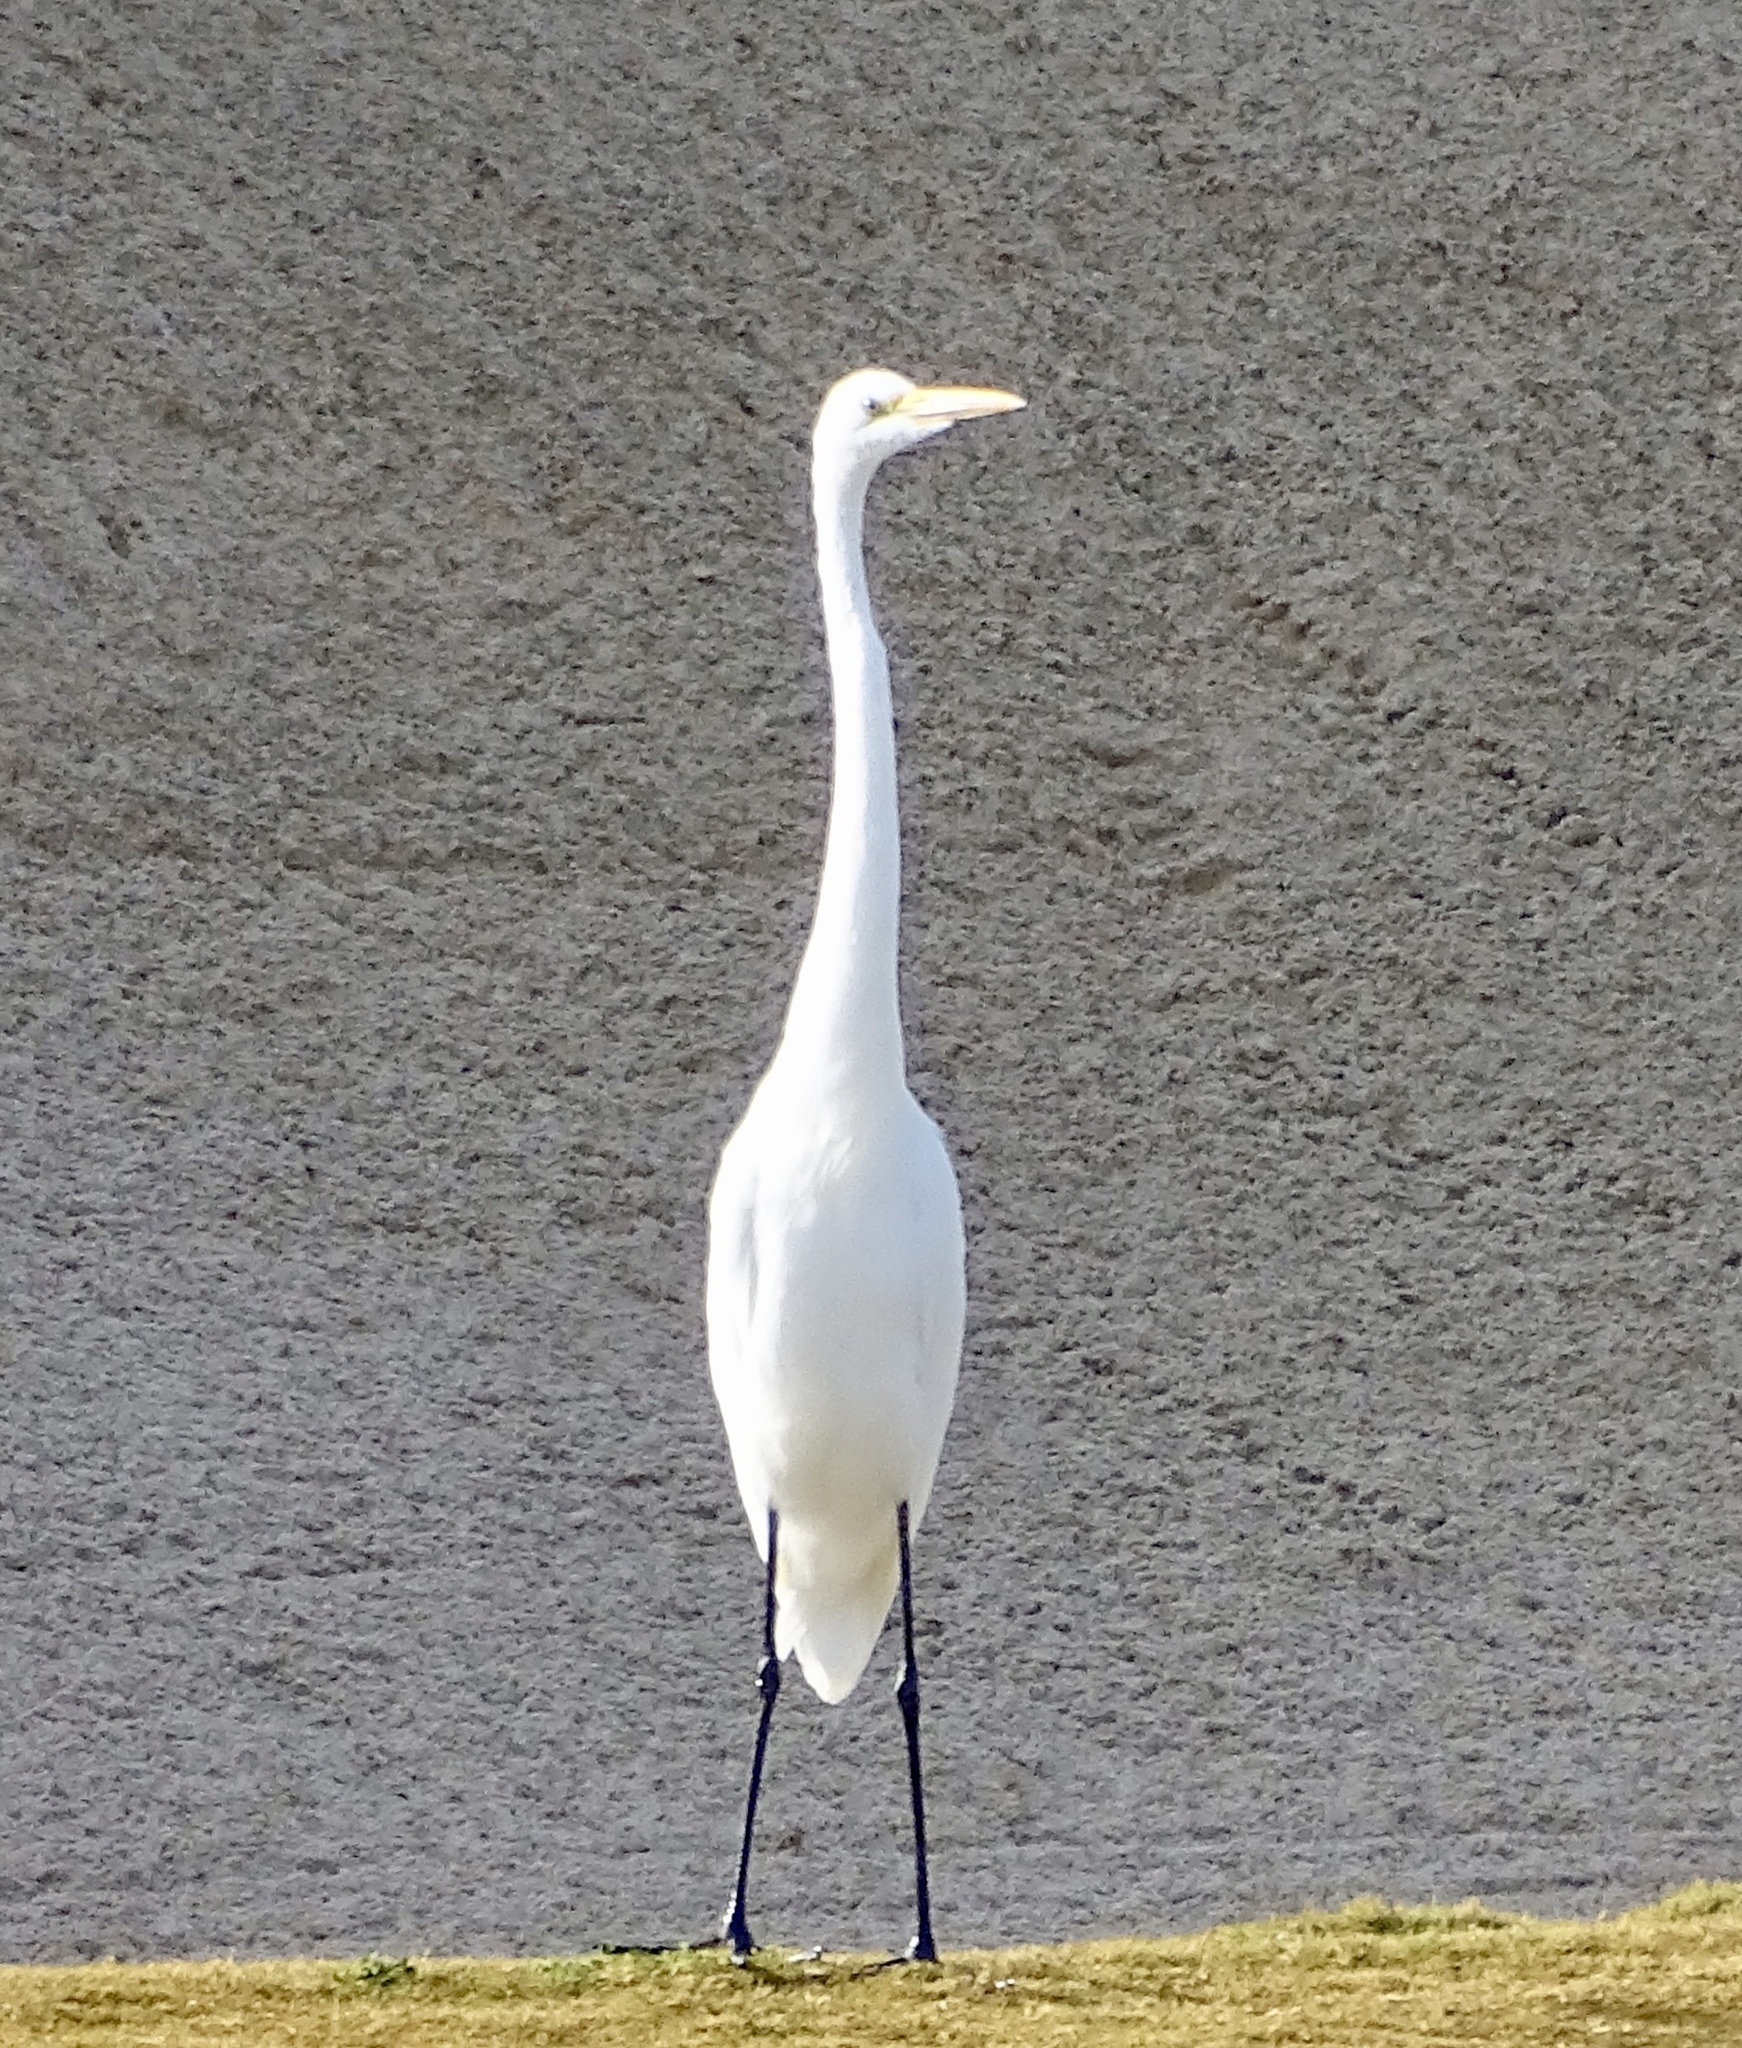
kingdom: Animalia
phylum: Chordata
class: Aves
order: Pelecaniformes
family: Ardeidae
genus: Ardea
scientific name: Ardea alba
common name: Great egret
